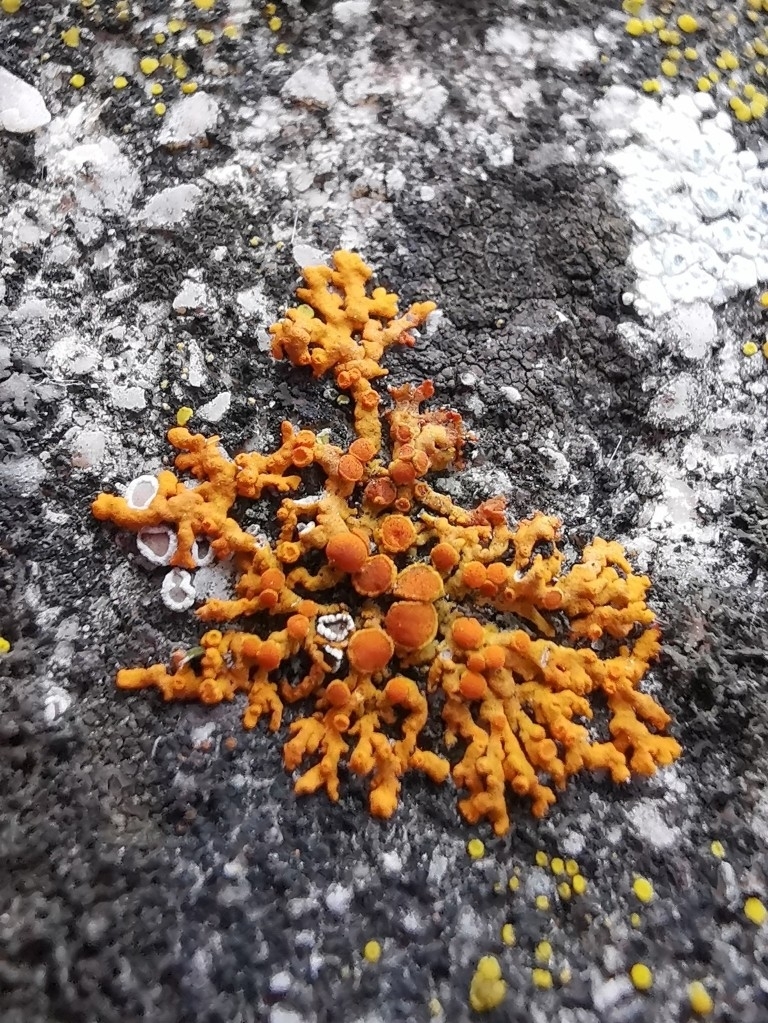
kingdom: Fungi
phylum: Ascomycota
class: Lecanoromycetes
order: Teloschistales
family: Teloschistaceae
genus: Xanthoria
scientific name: Xanthoria elegans
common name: Elegant sunburst lichen
